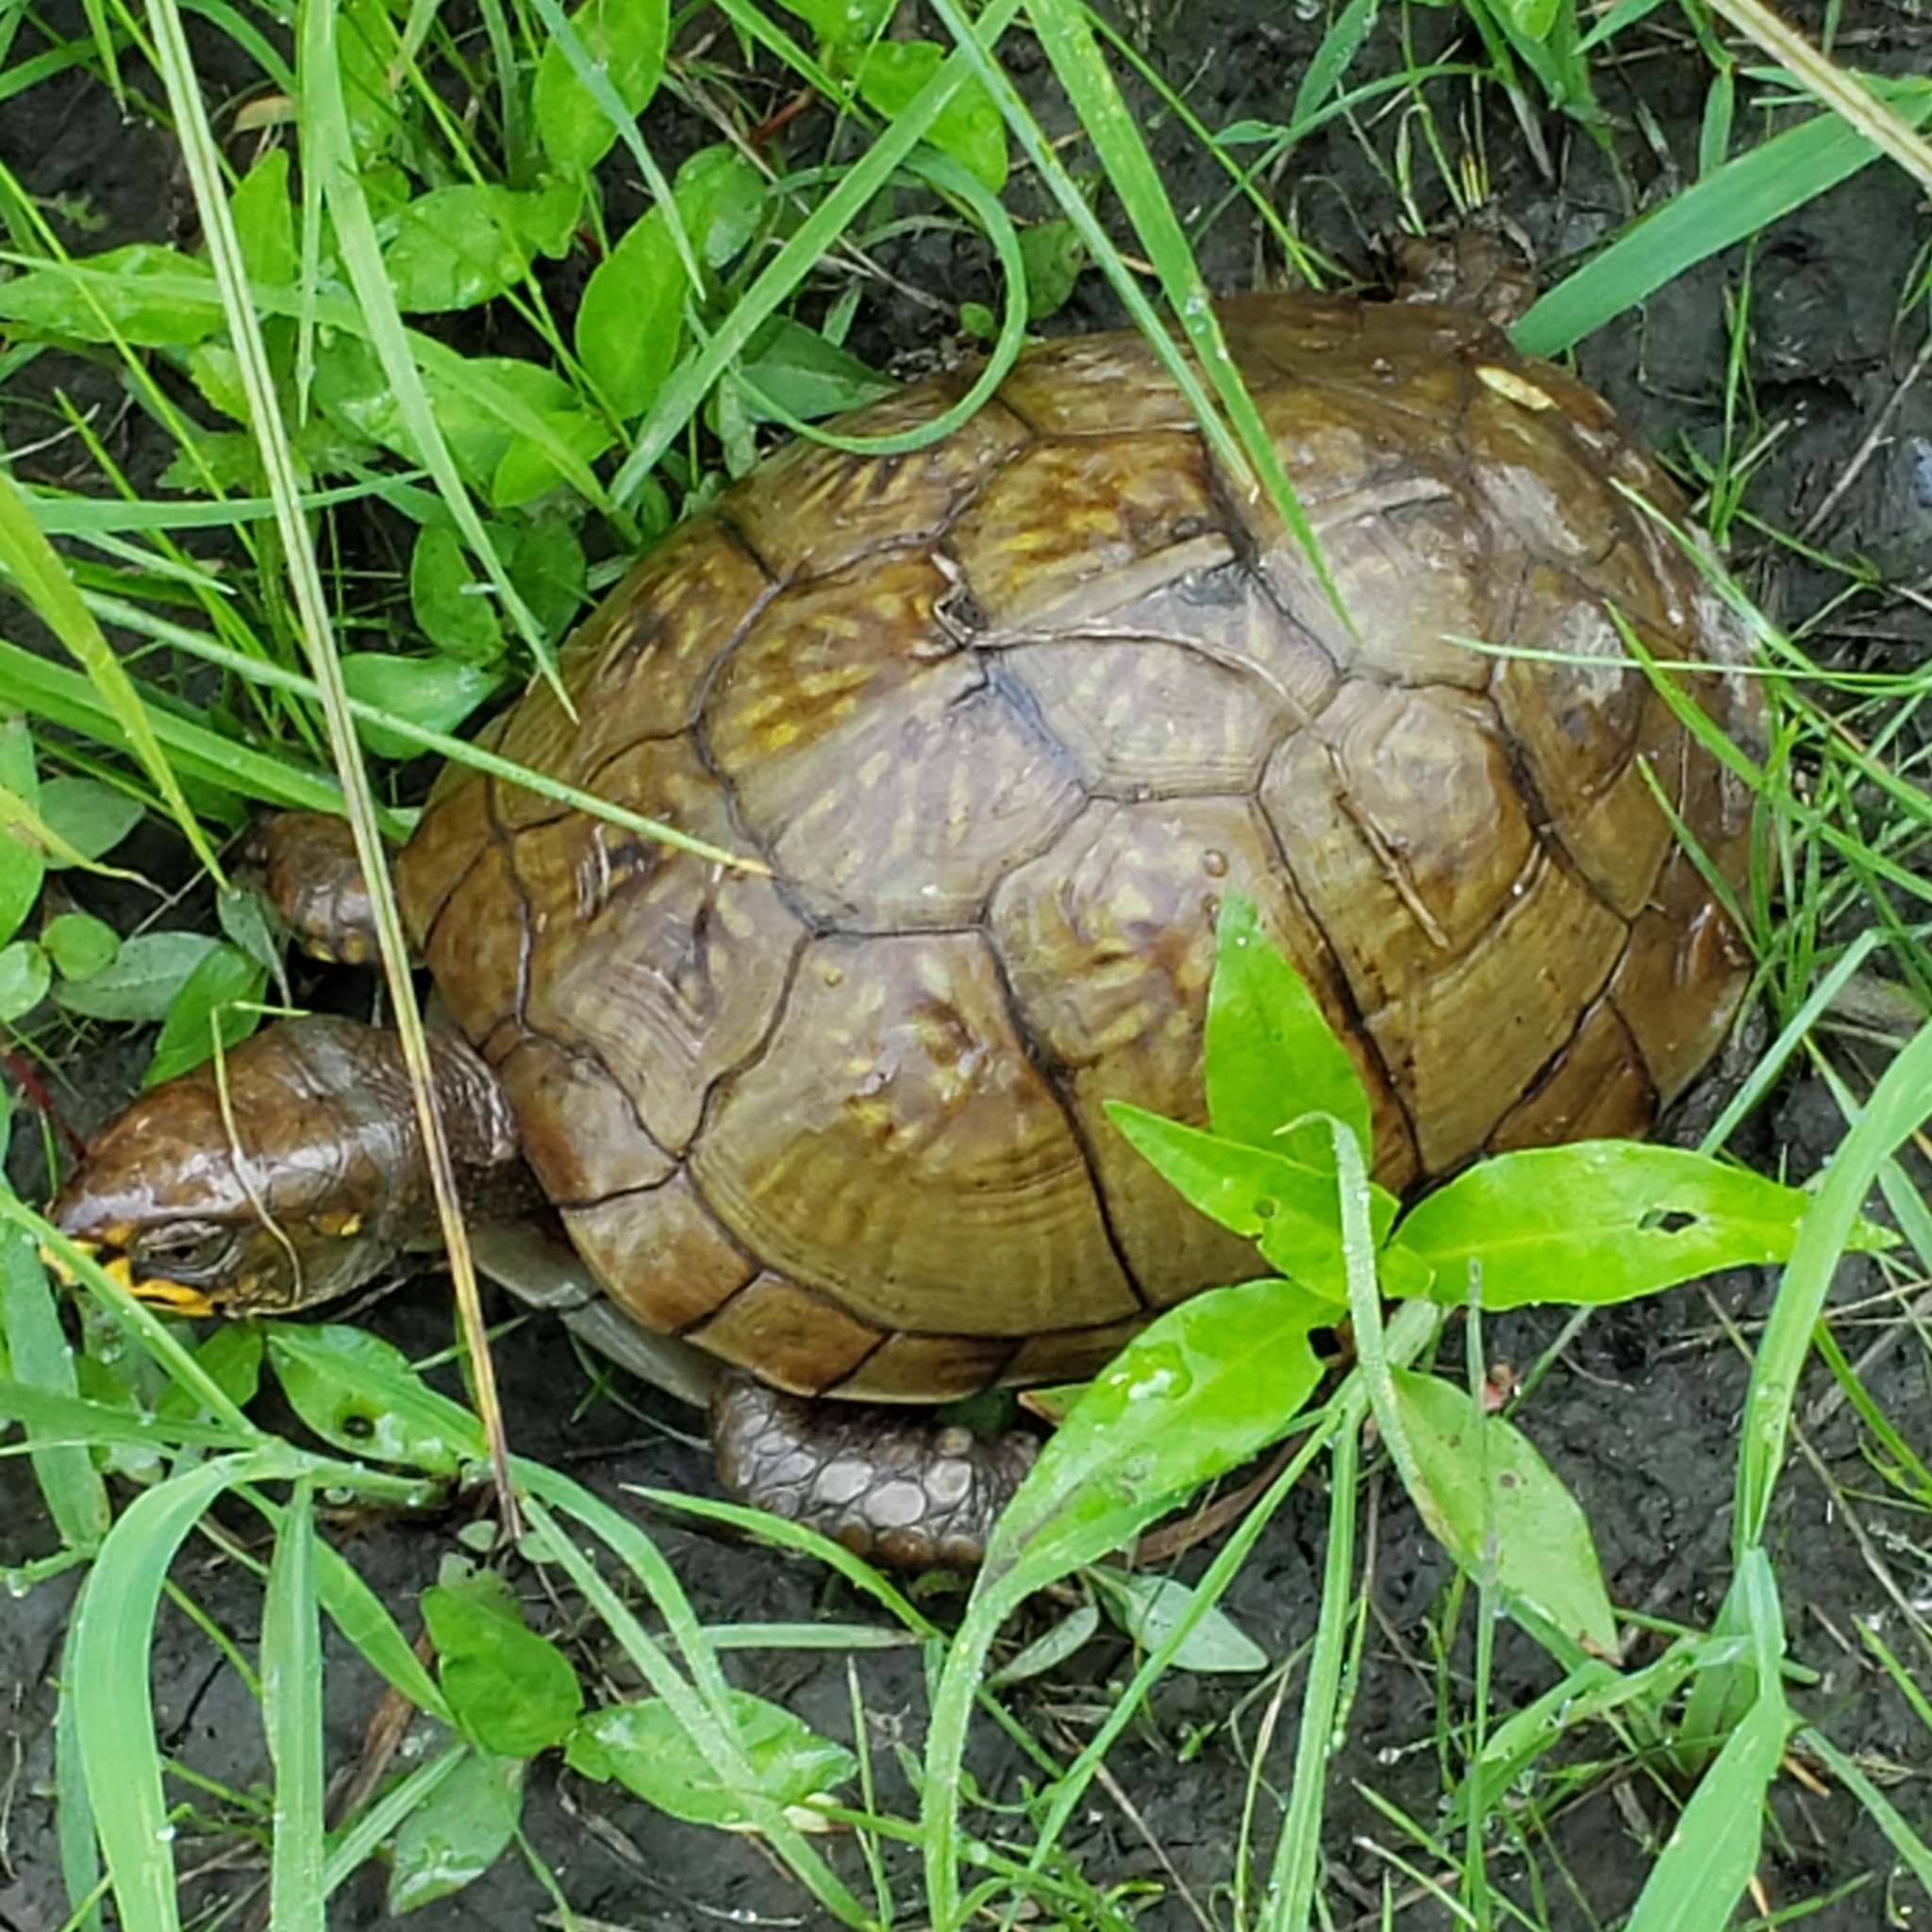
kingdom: Animalia
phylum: Chordata
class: Testudines
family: Emydidae
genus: Terrapene
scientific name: Terrapene carolina
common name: Common box turtle
